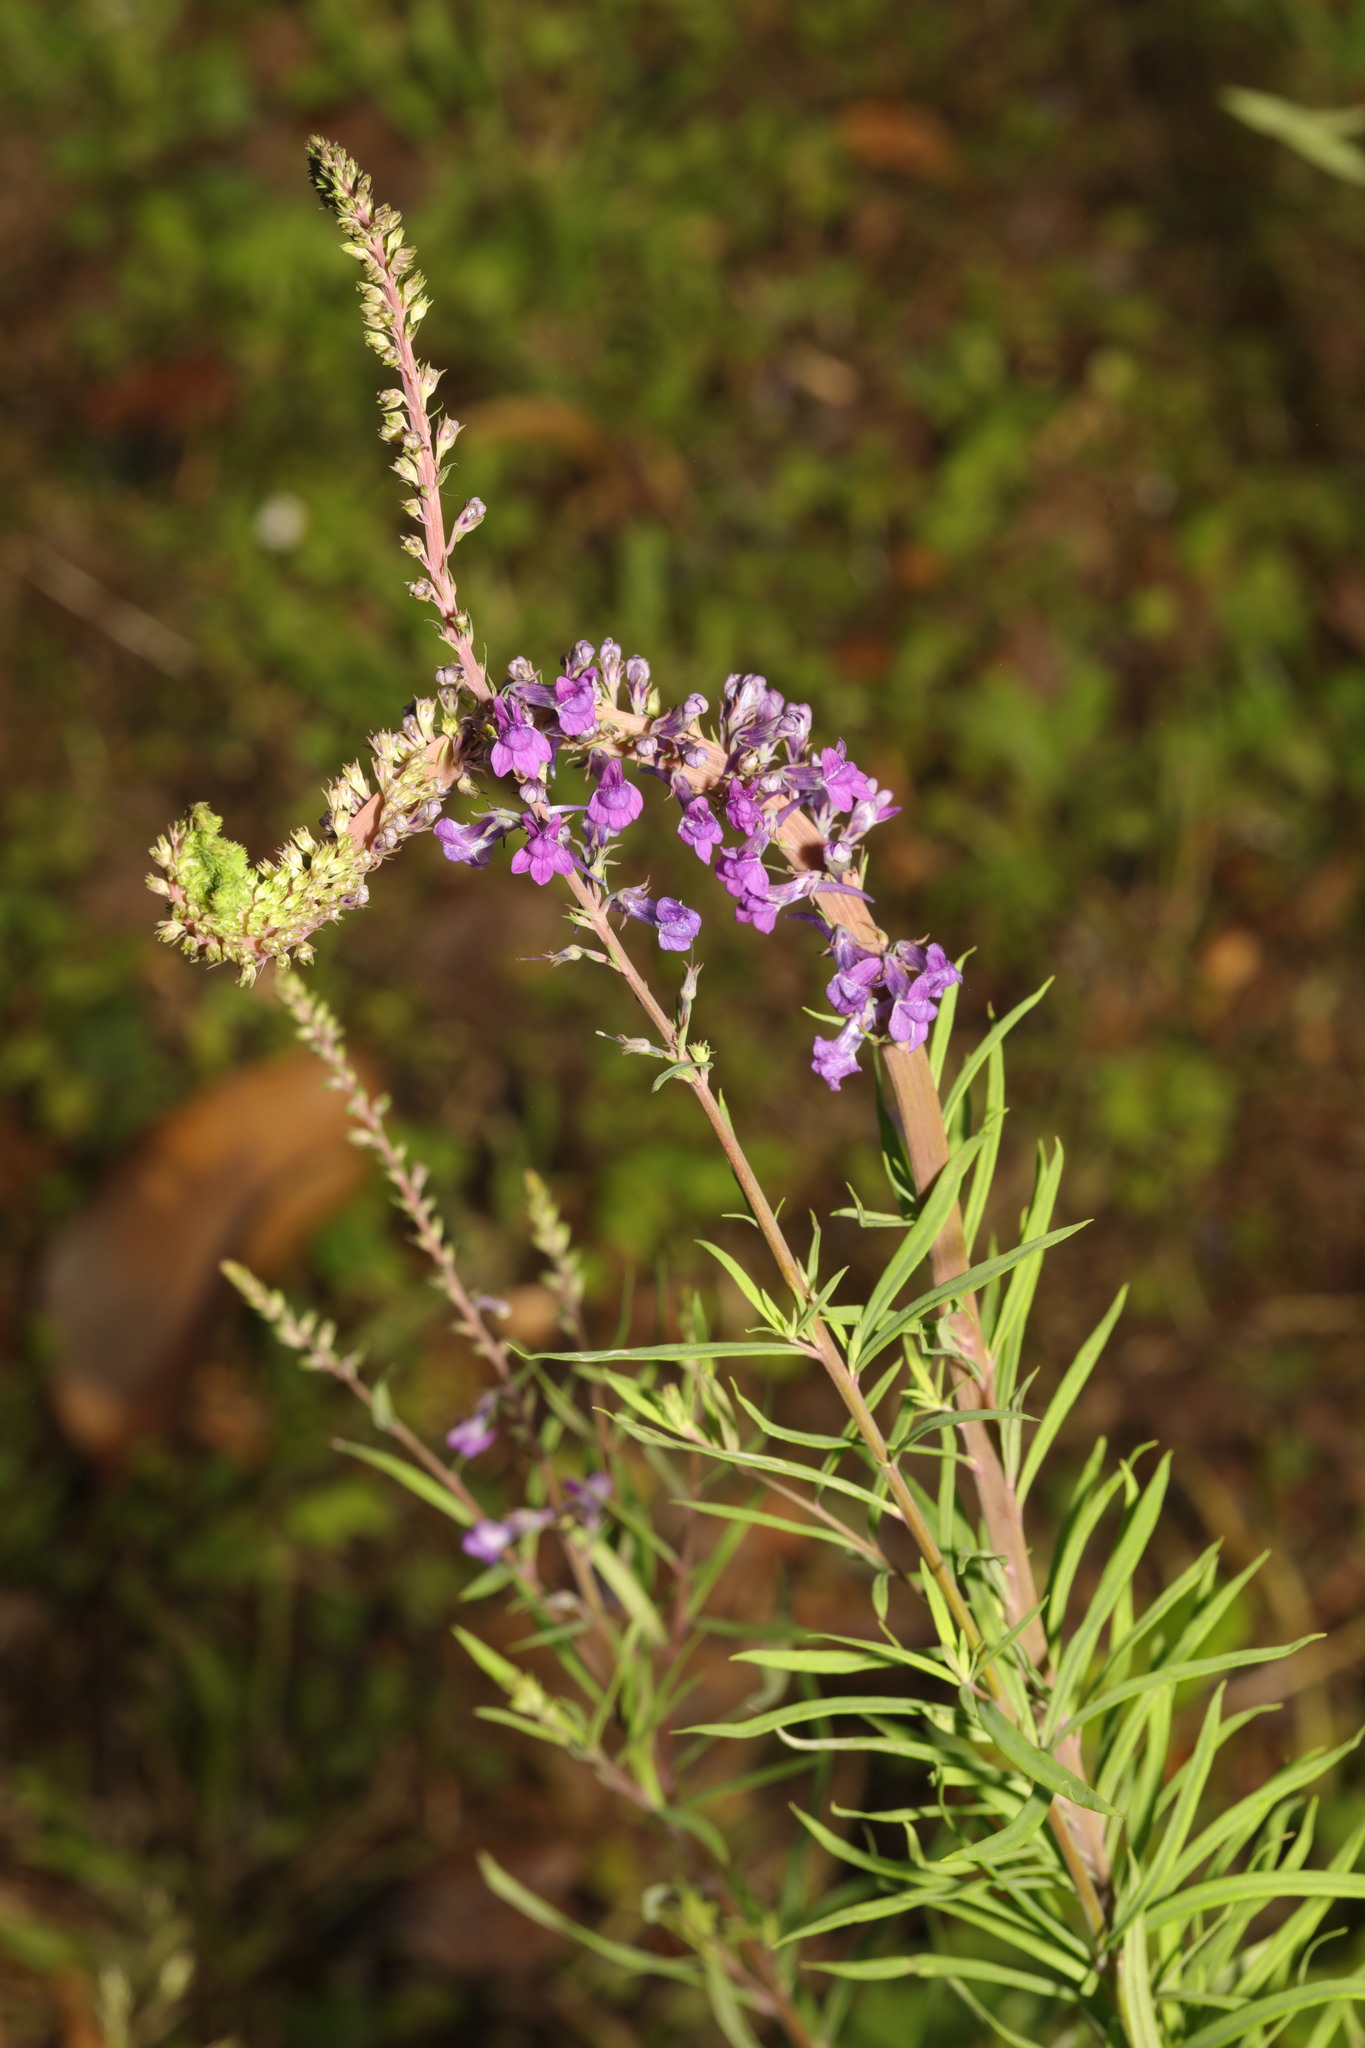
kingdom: Plantae
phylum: Tracheophyta
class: Magnoliopsida
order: Lamiales
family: Plantaginaceae
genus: Linaria
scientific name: Linaria purpurea
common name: Purple toadflax
